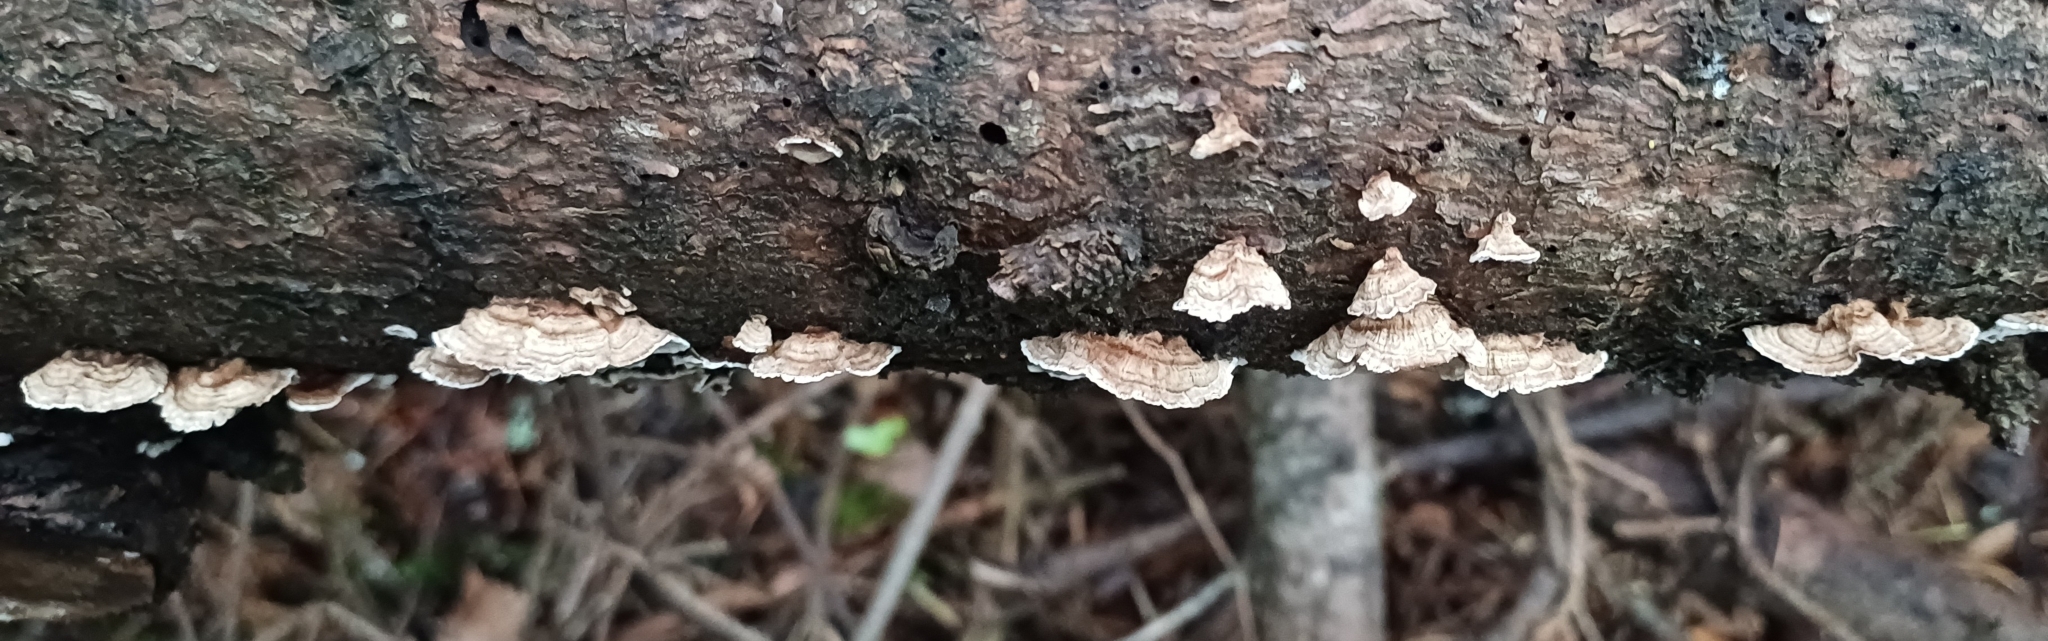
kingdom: Fungi
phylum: Basidiomycota
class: Agaricomycetes
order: Russulales
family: Stereaceae
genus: Stereum
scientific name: Stereum sanguinolentum
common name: Bleeding conifer crust
